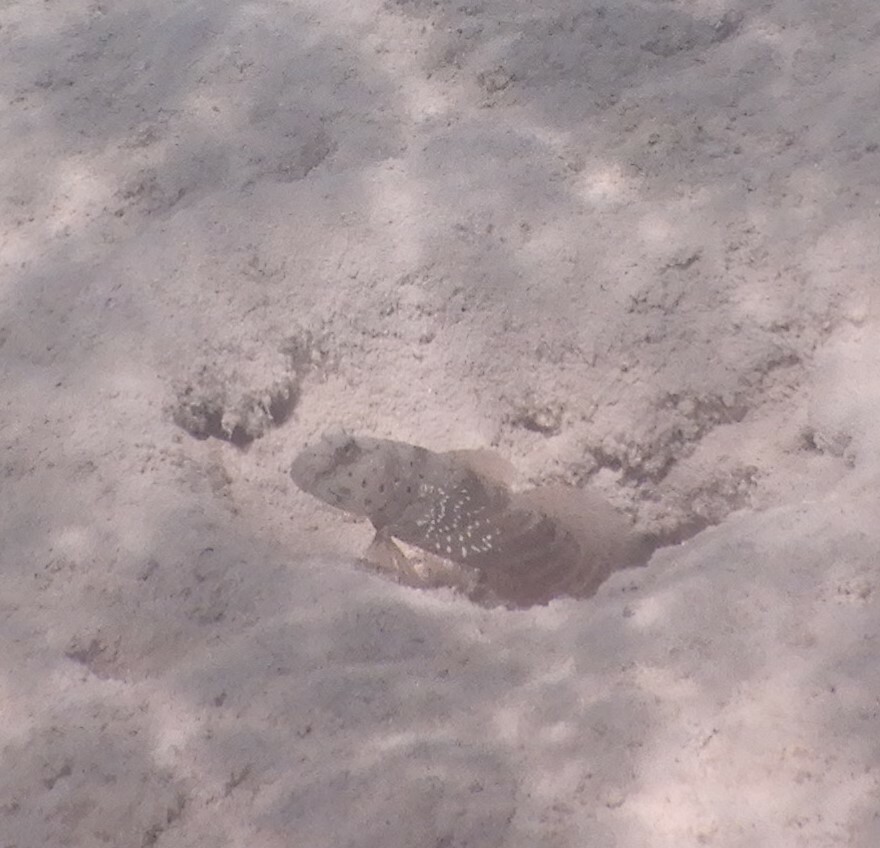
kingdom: Animalia
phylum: Chordata
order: Perciformes
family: Gobiidae
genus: Cryptocentrus
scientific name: Cryptocentrus caeruleopunctatus
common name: Blue-and-red-spotted goby
